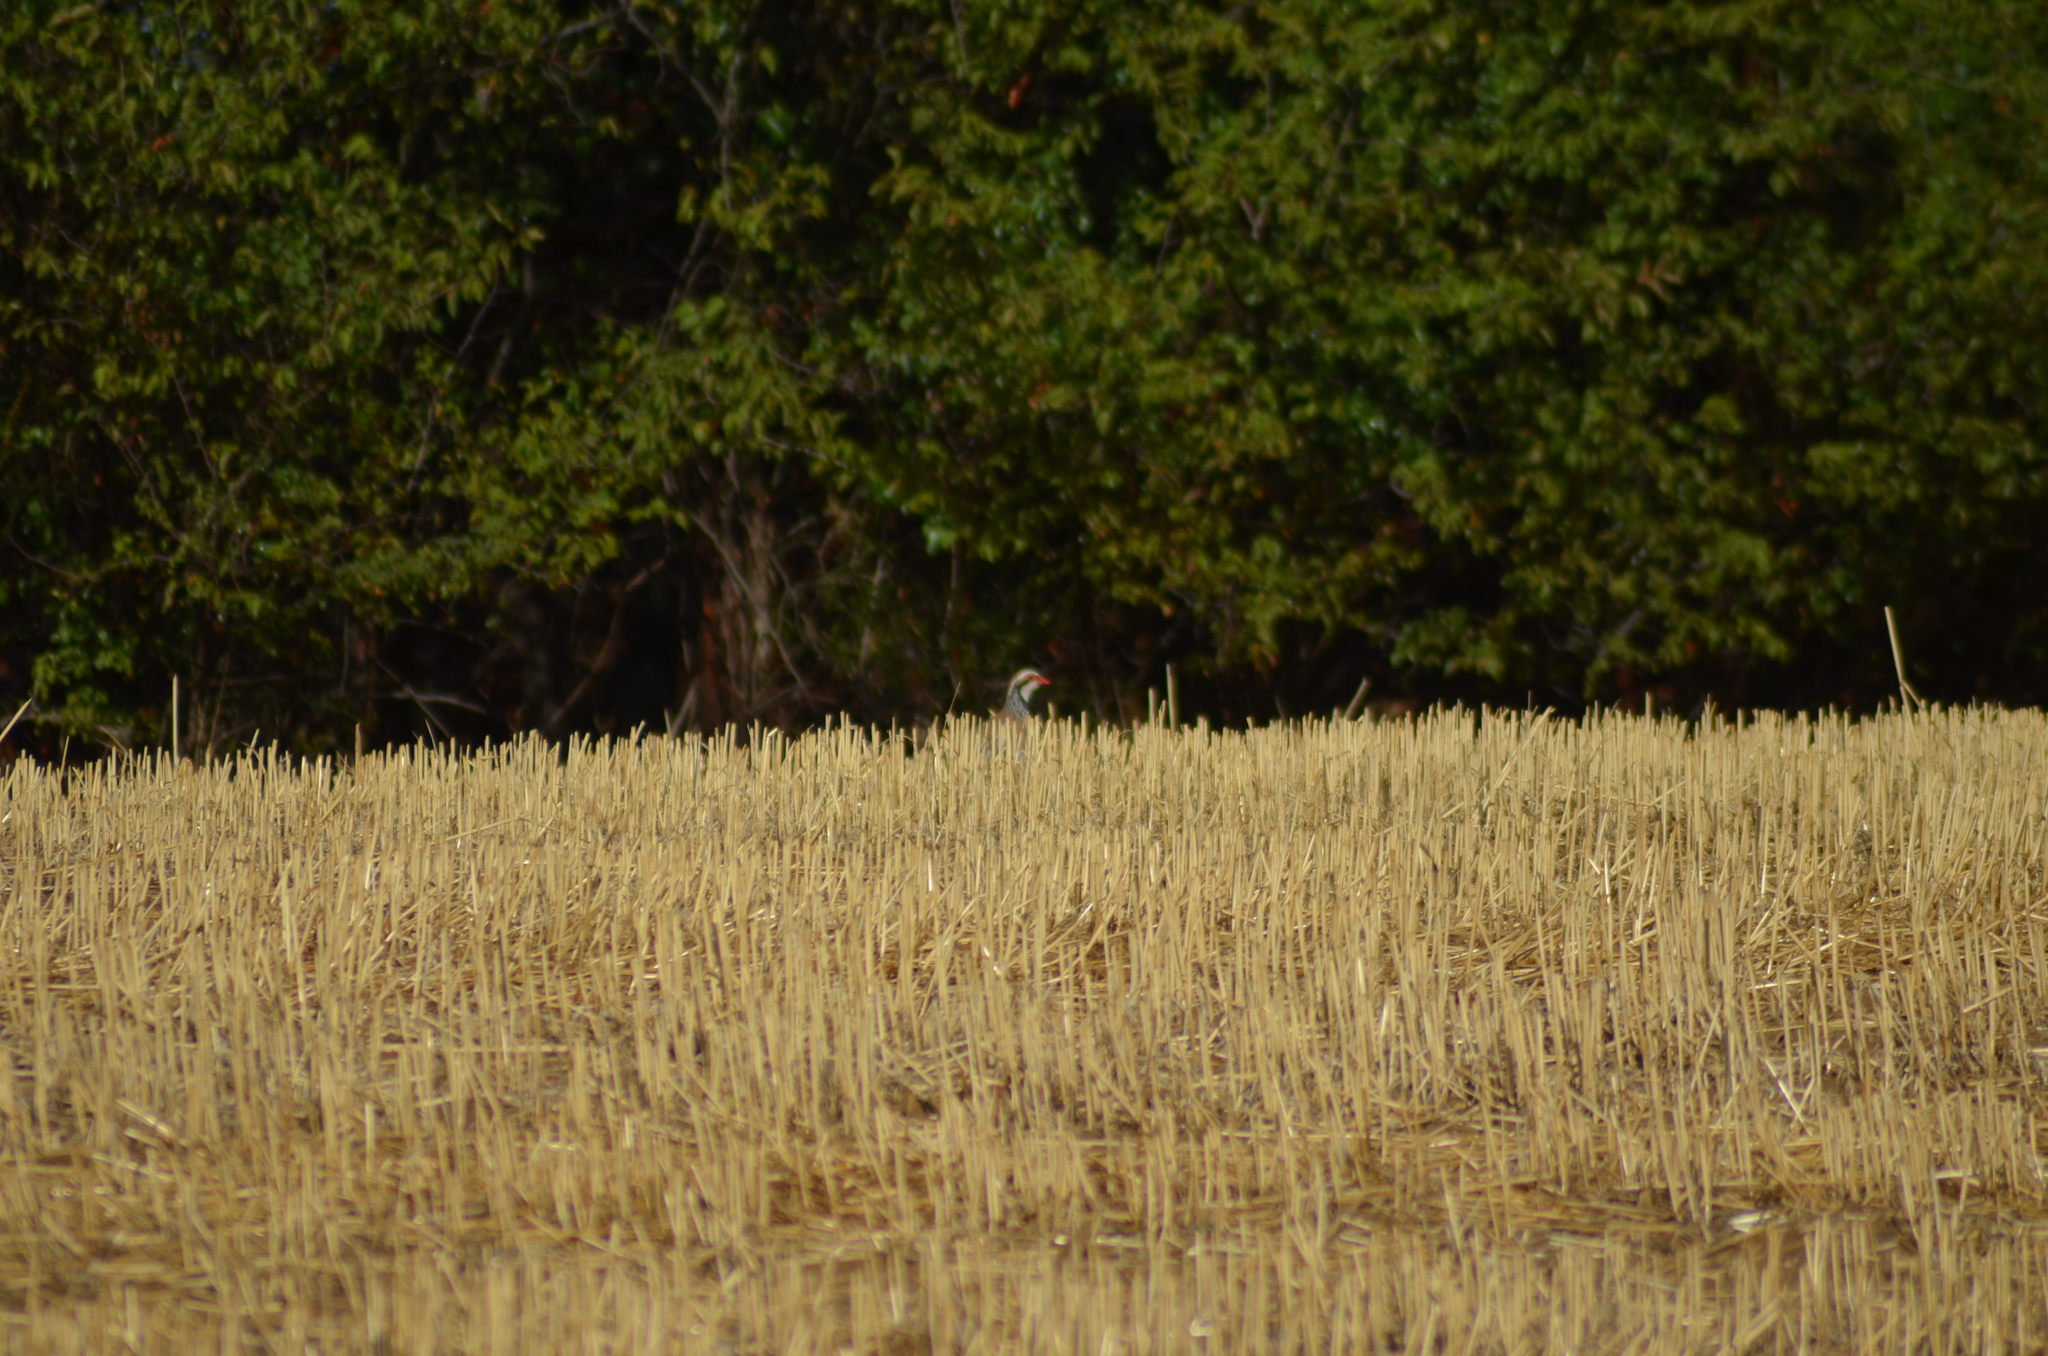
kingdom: Animalia
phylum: Chordata
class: Aves
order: Galliformes
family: Phasianidae
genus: Alectoris
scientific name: Alectoris rufa
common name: Red-legged partridge
